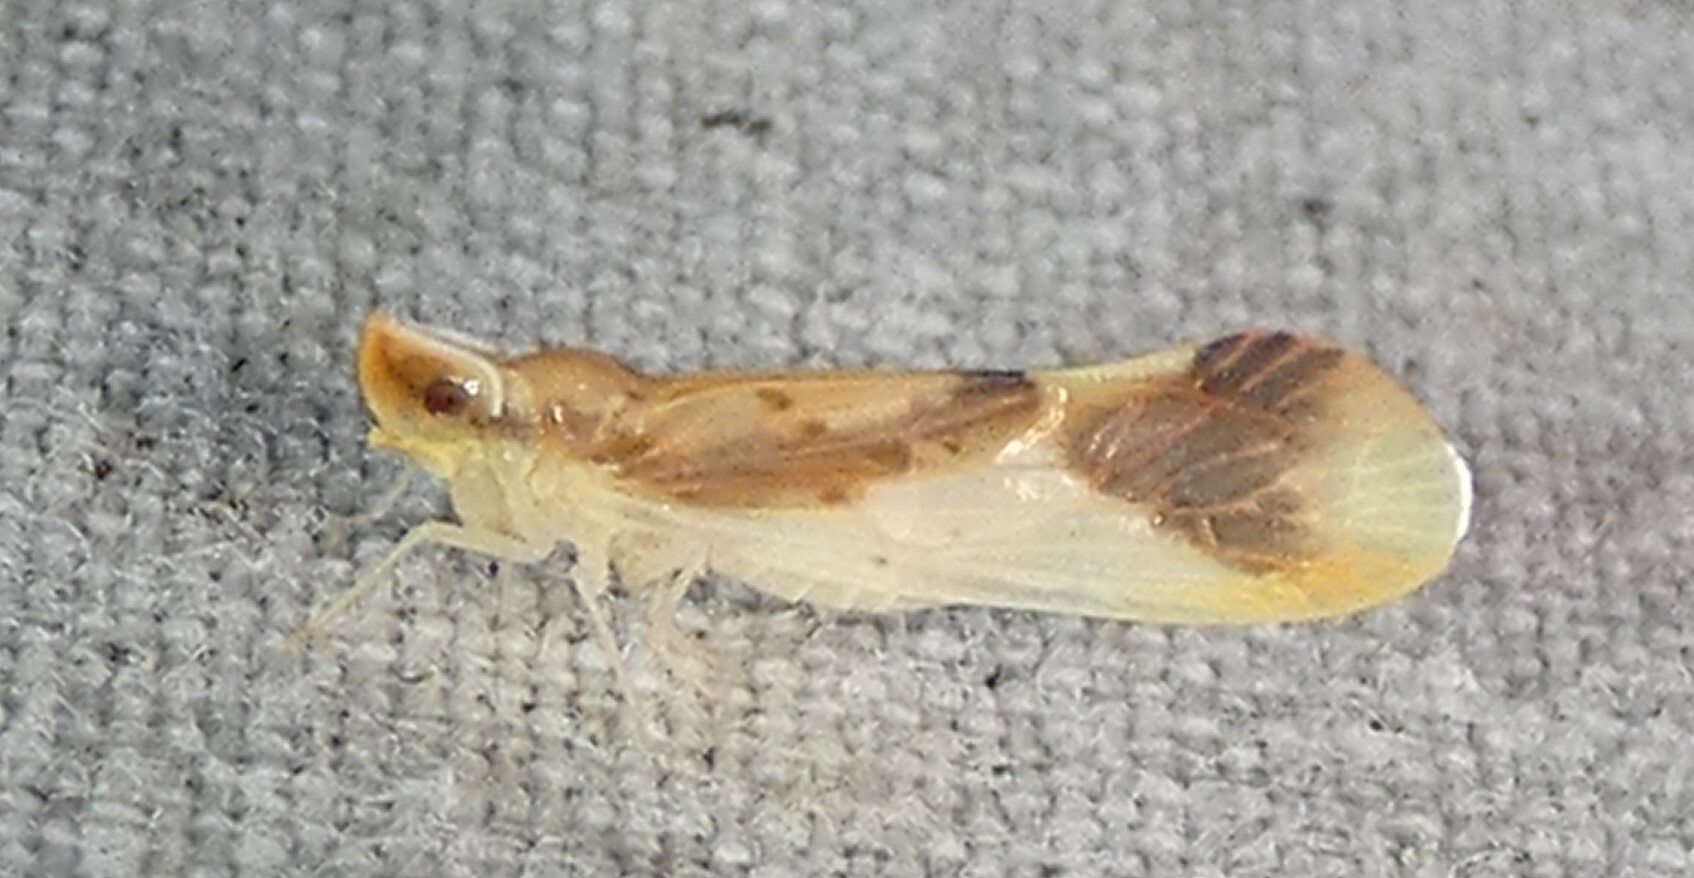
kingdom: Animalia
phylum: Arthropoda
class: Insecta
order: Hemiptera
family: Derbidae
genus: Otiocerus
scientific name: Otiocerus reaumurii
